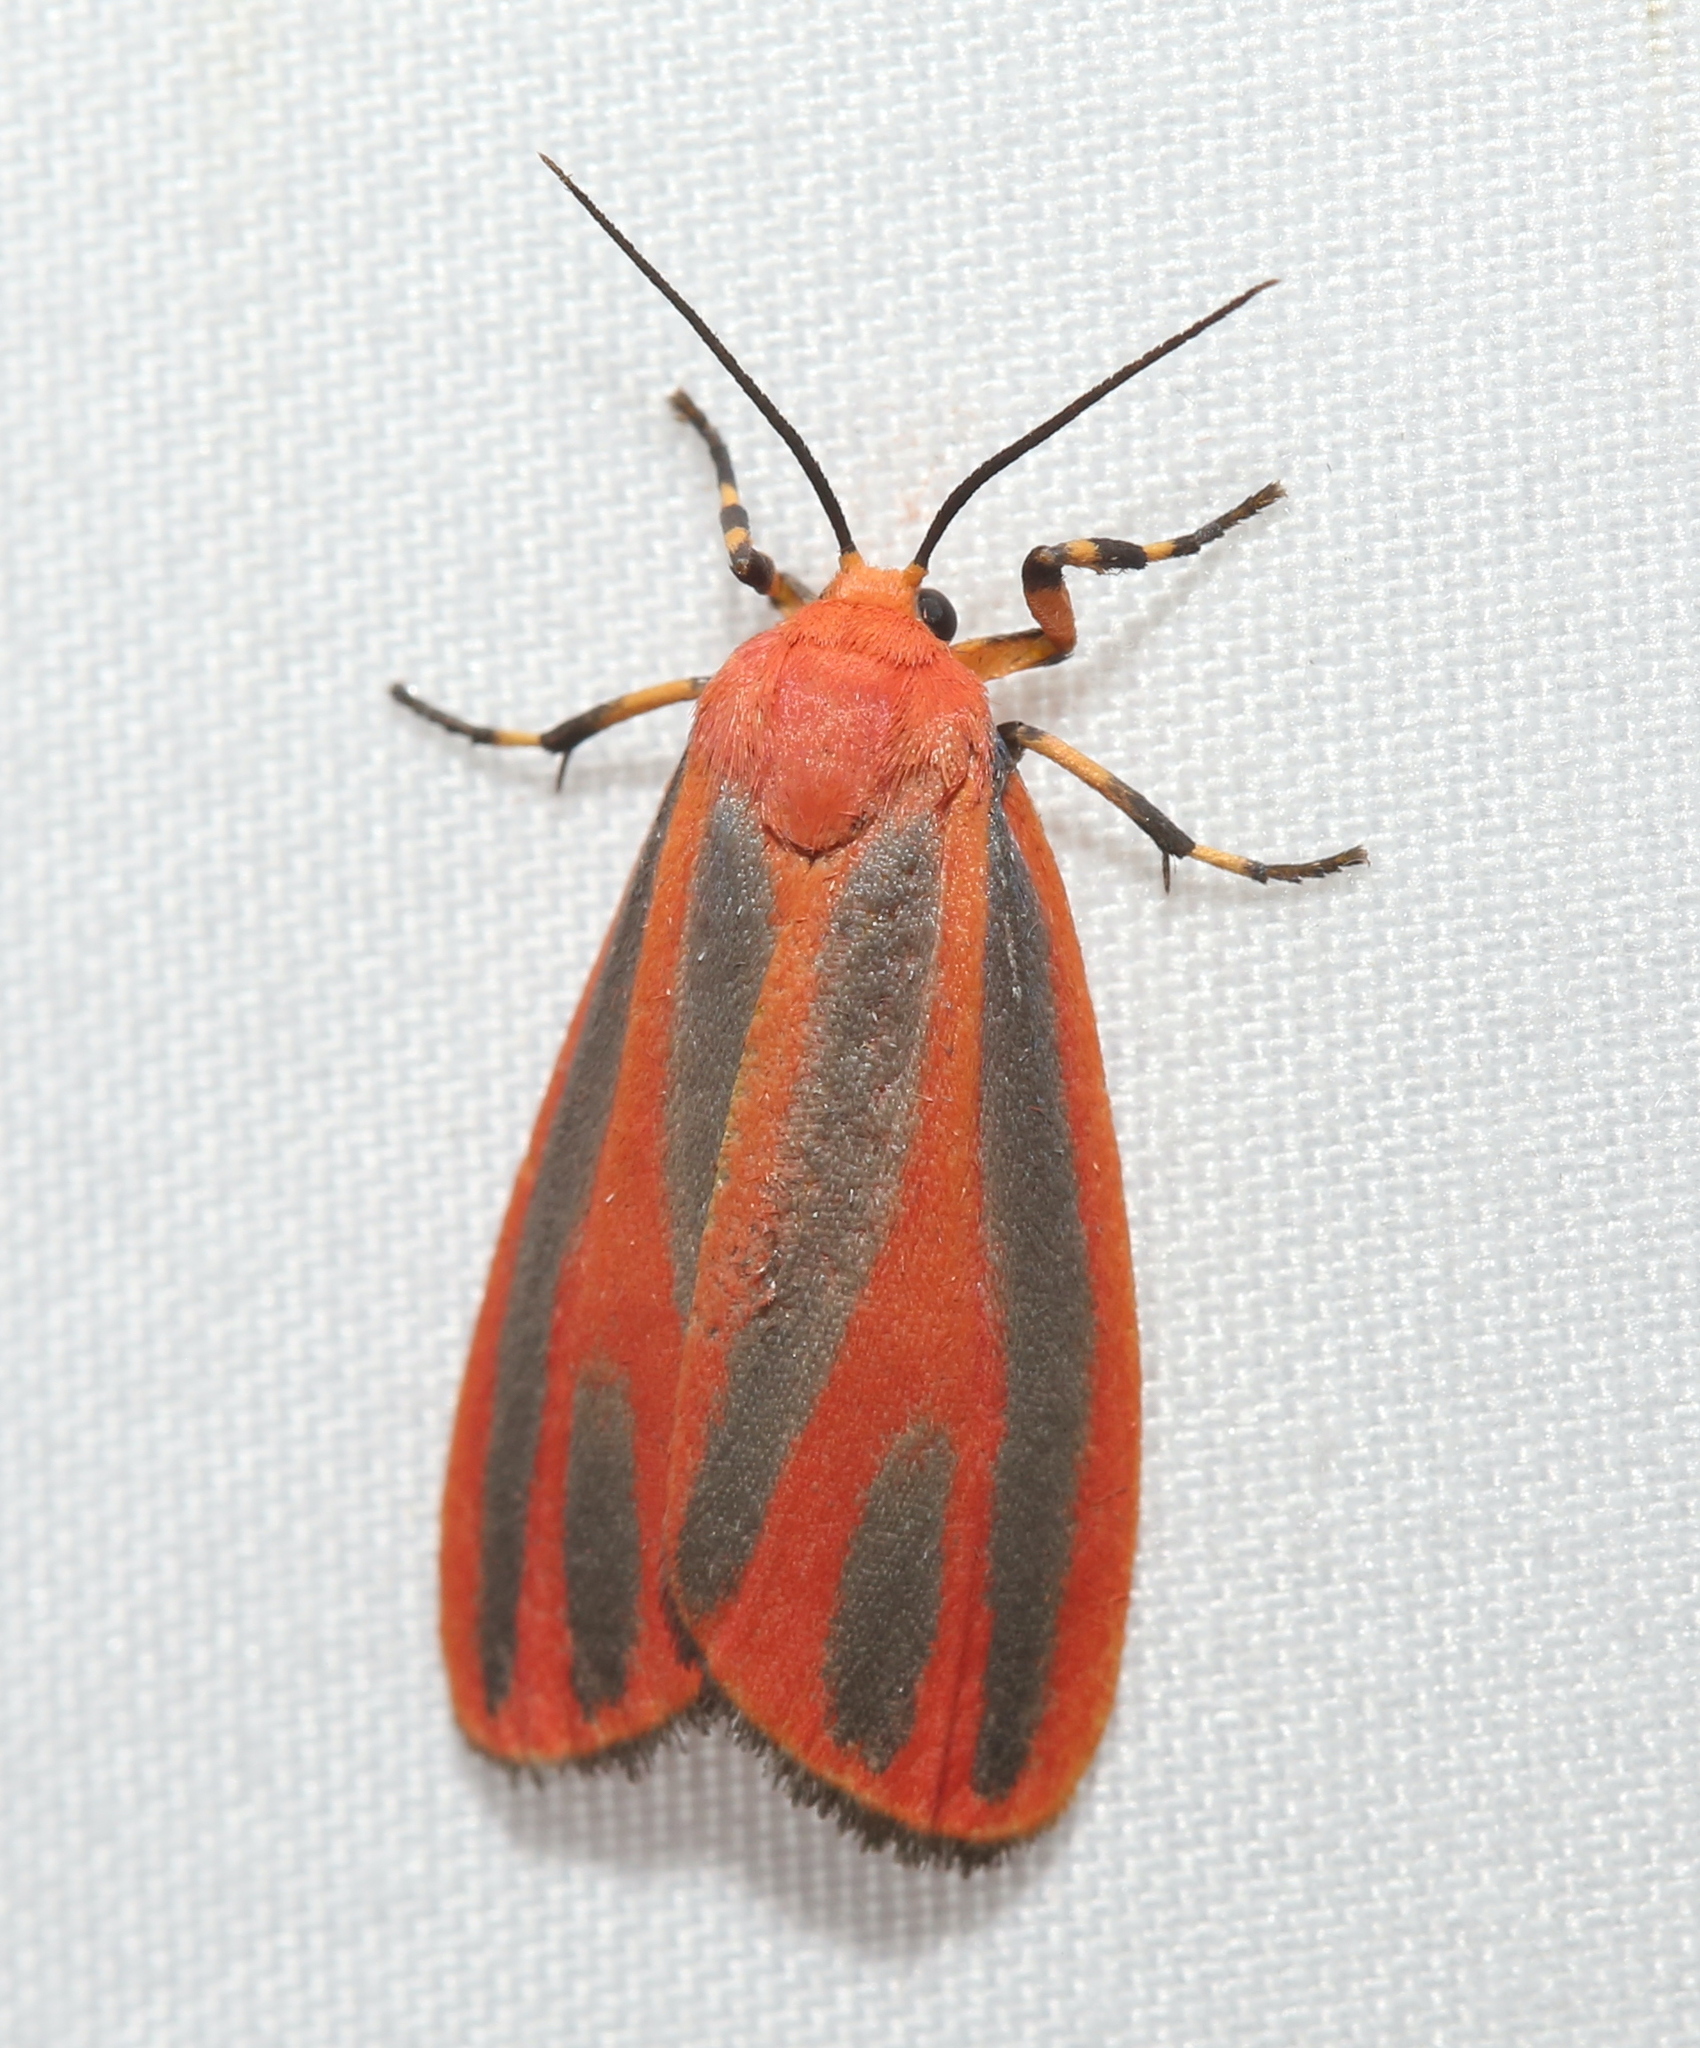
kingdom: Animalia
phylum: Arthropoda
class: Insecta
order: Lepidoptera
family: Erebidae
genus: Hypoprepia
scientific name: Hypoprepia miniata
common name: Scarlet-winged lichen moth
